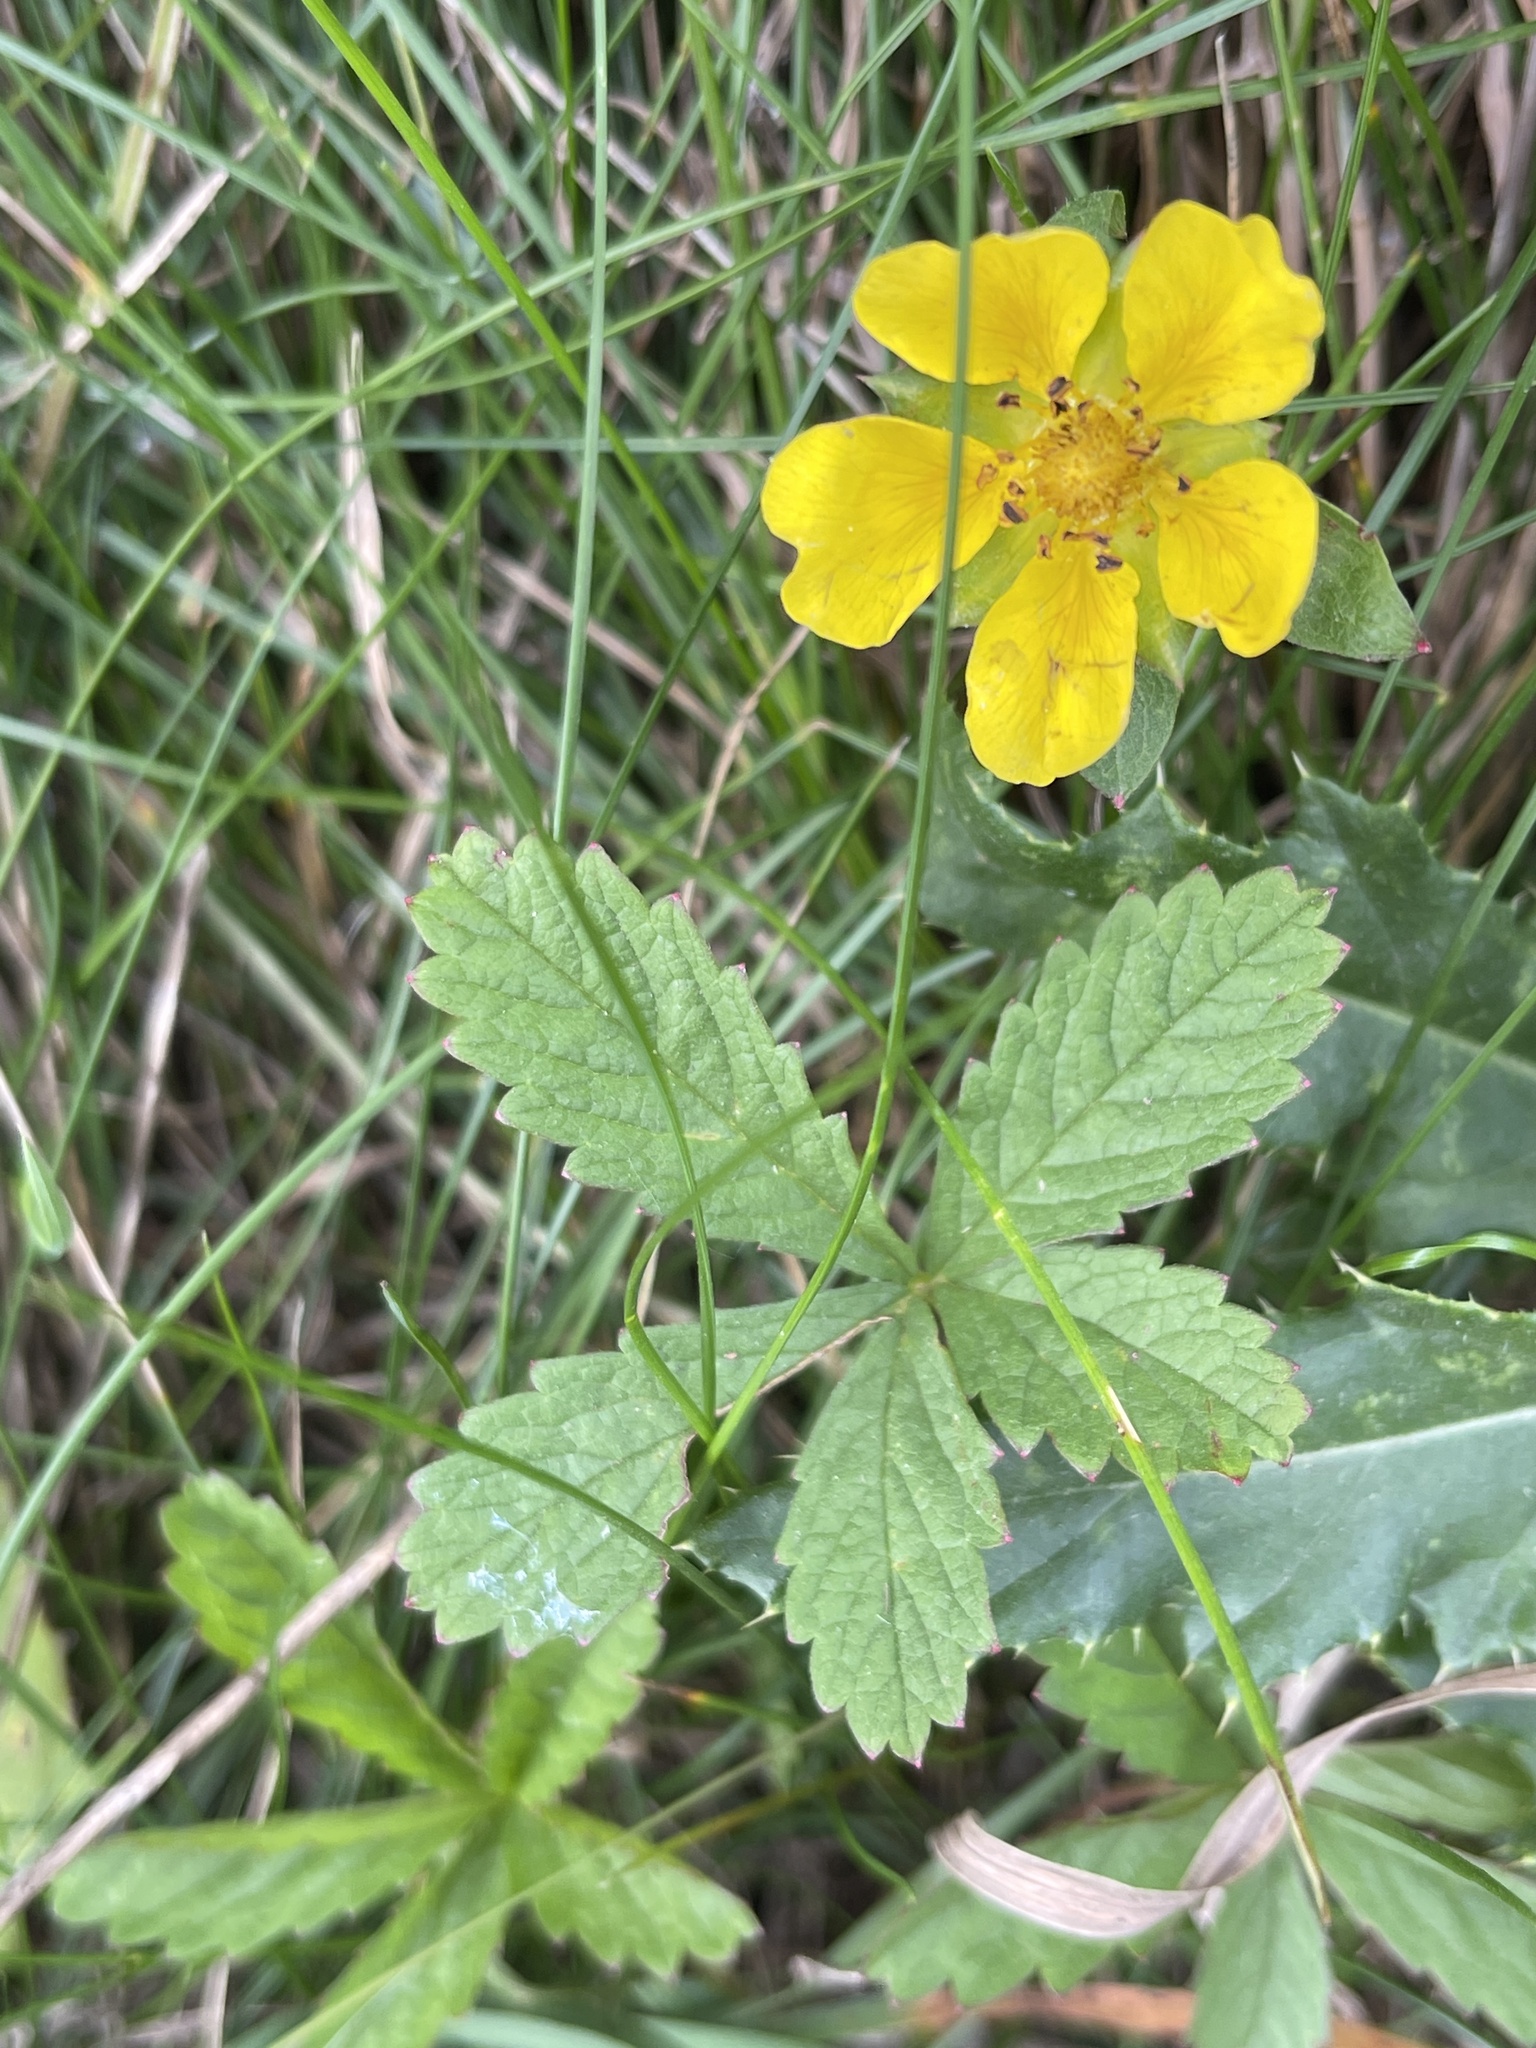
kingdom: Plantae
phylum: Tracheophyta
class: Magnoliopsida
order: Rosales
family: Rosaceae
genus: Potentilla
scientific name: Potentilla reptans
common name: Creeping cinquefoil
